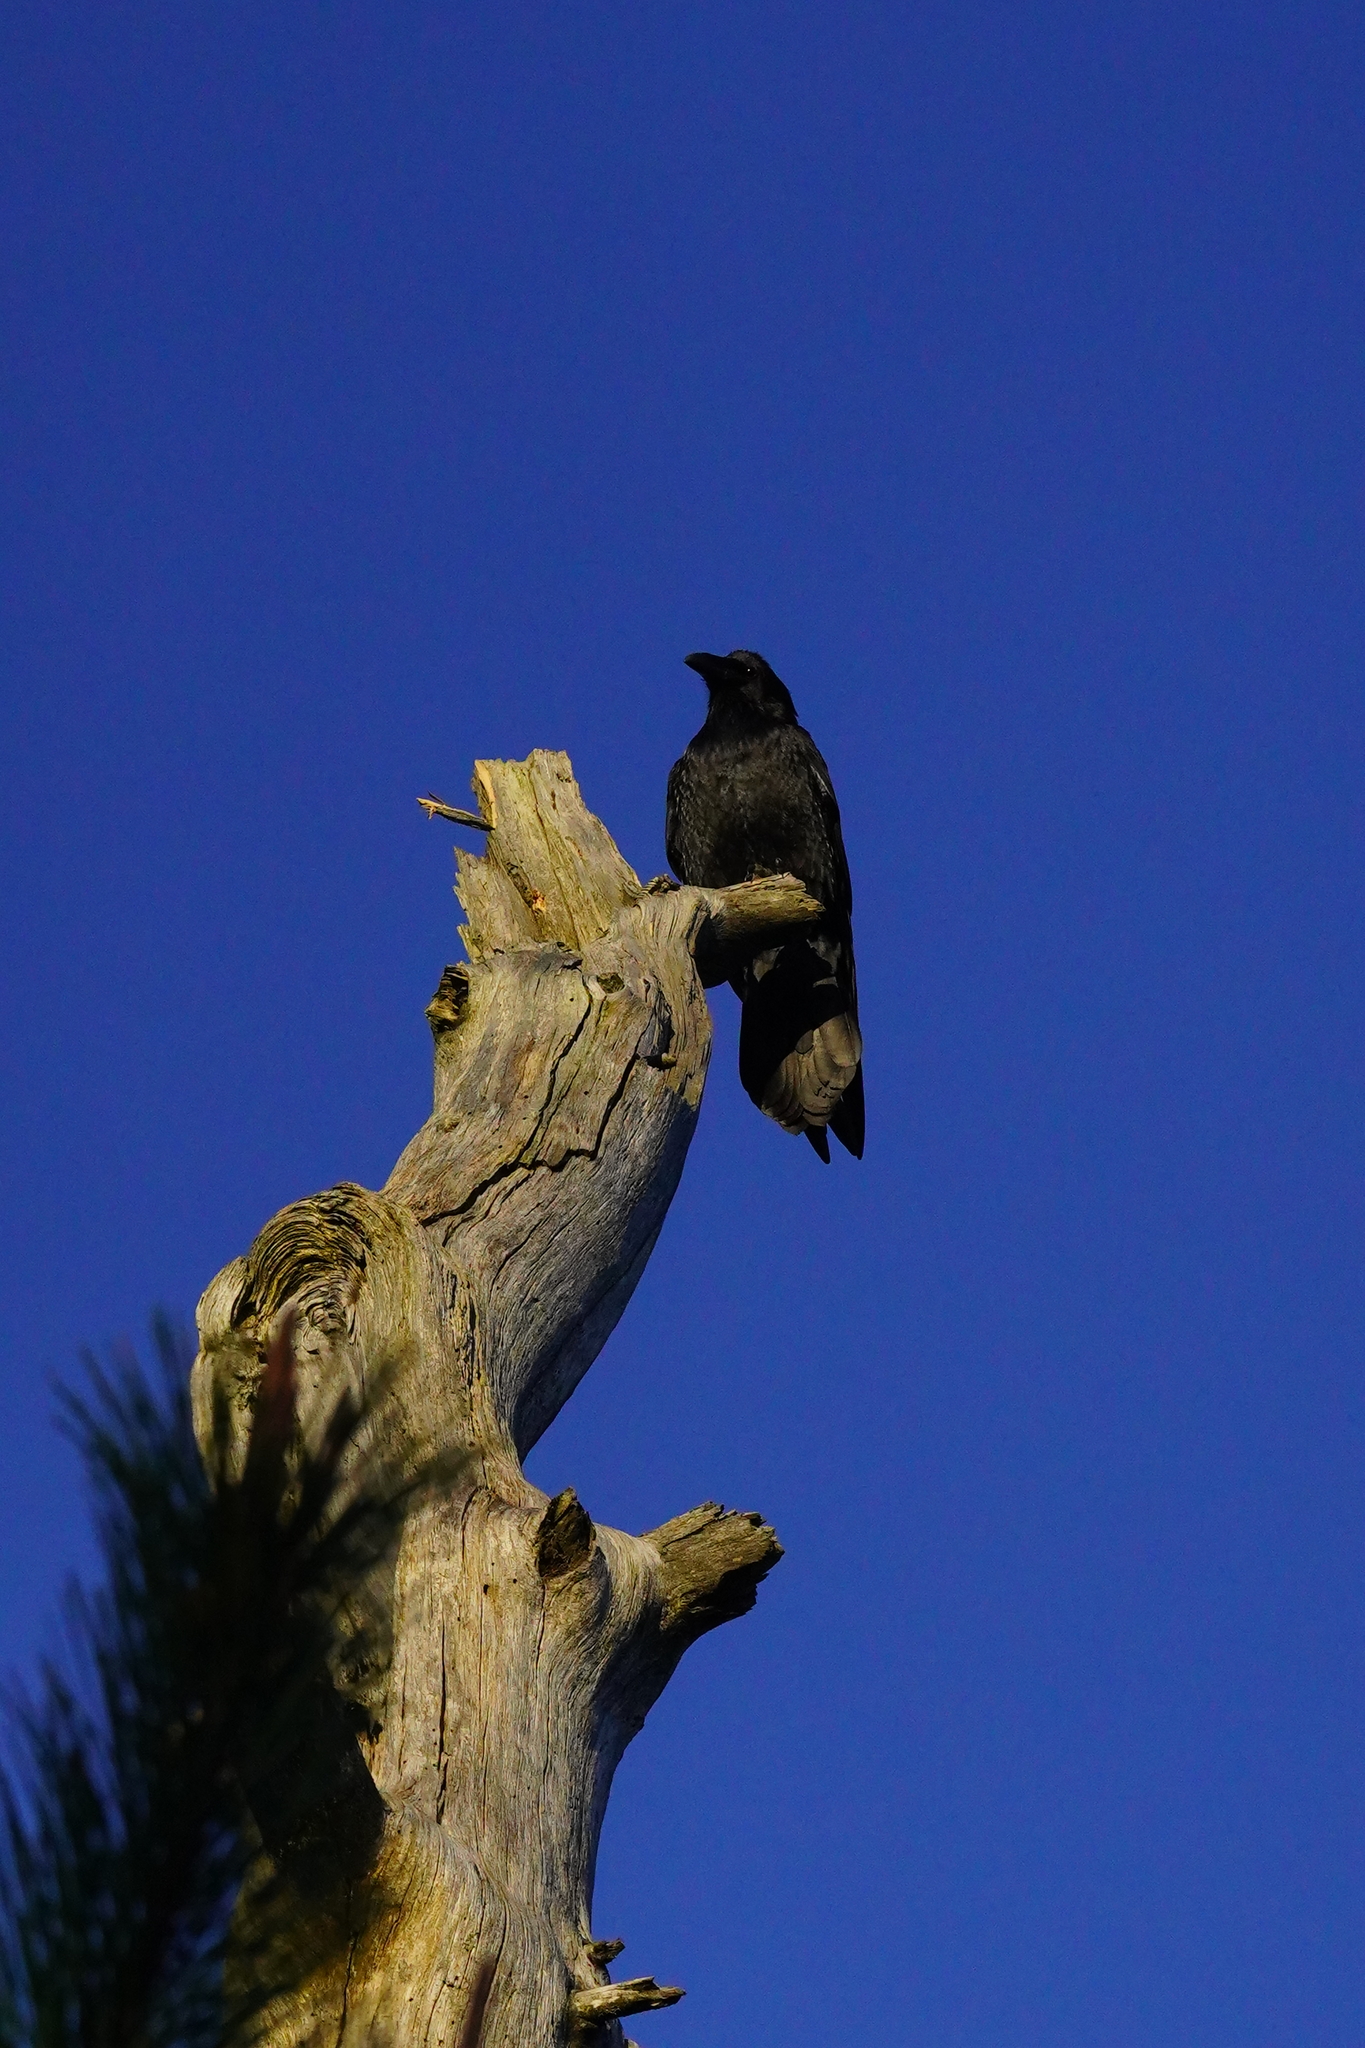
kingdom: Animalia
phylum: Chordata
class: Aves
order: Passeriformes
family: Corvidae
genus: Corvus
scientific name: Corvus corax
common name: Common raven
